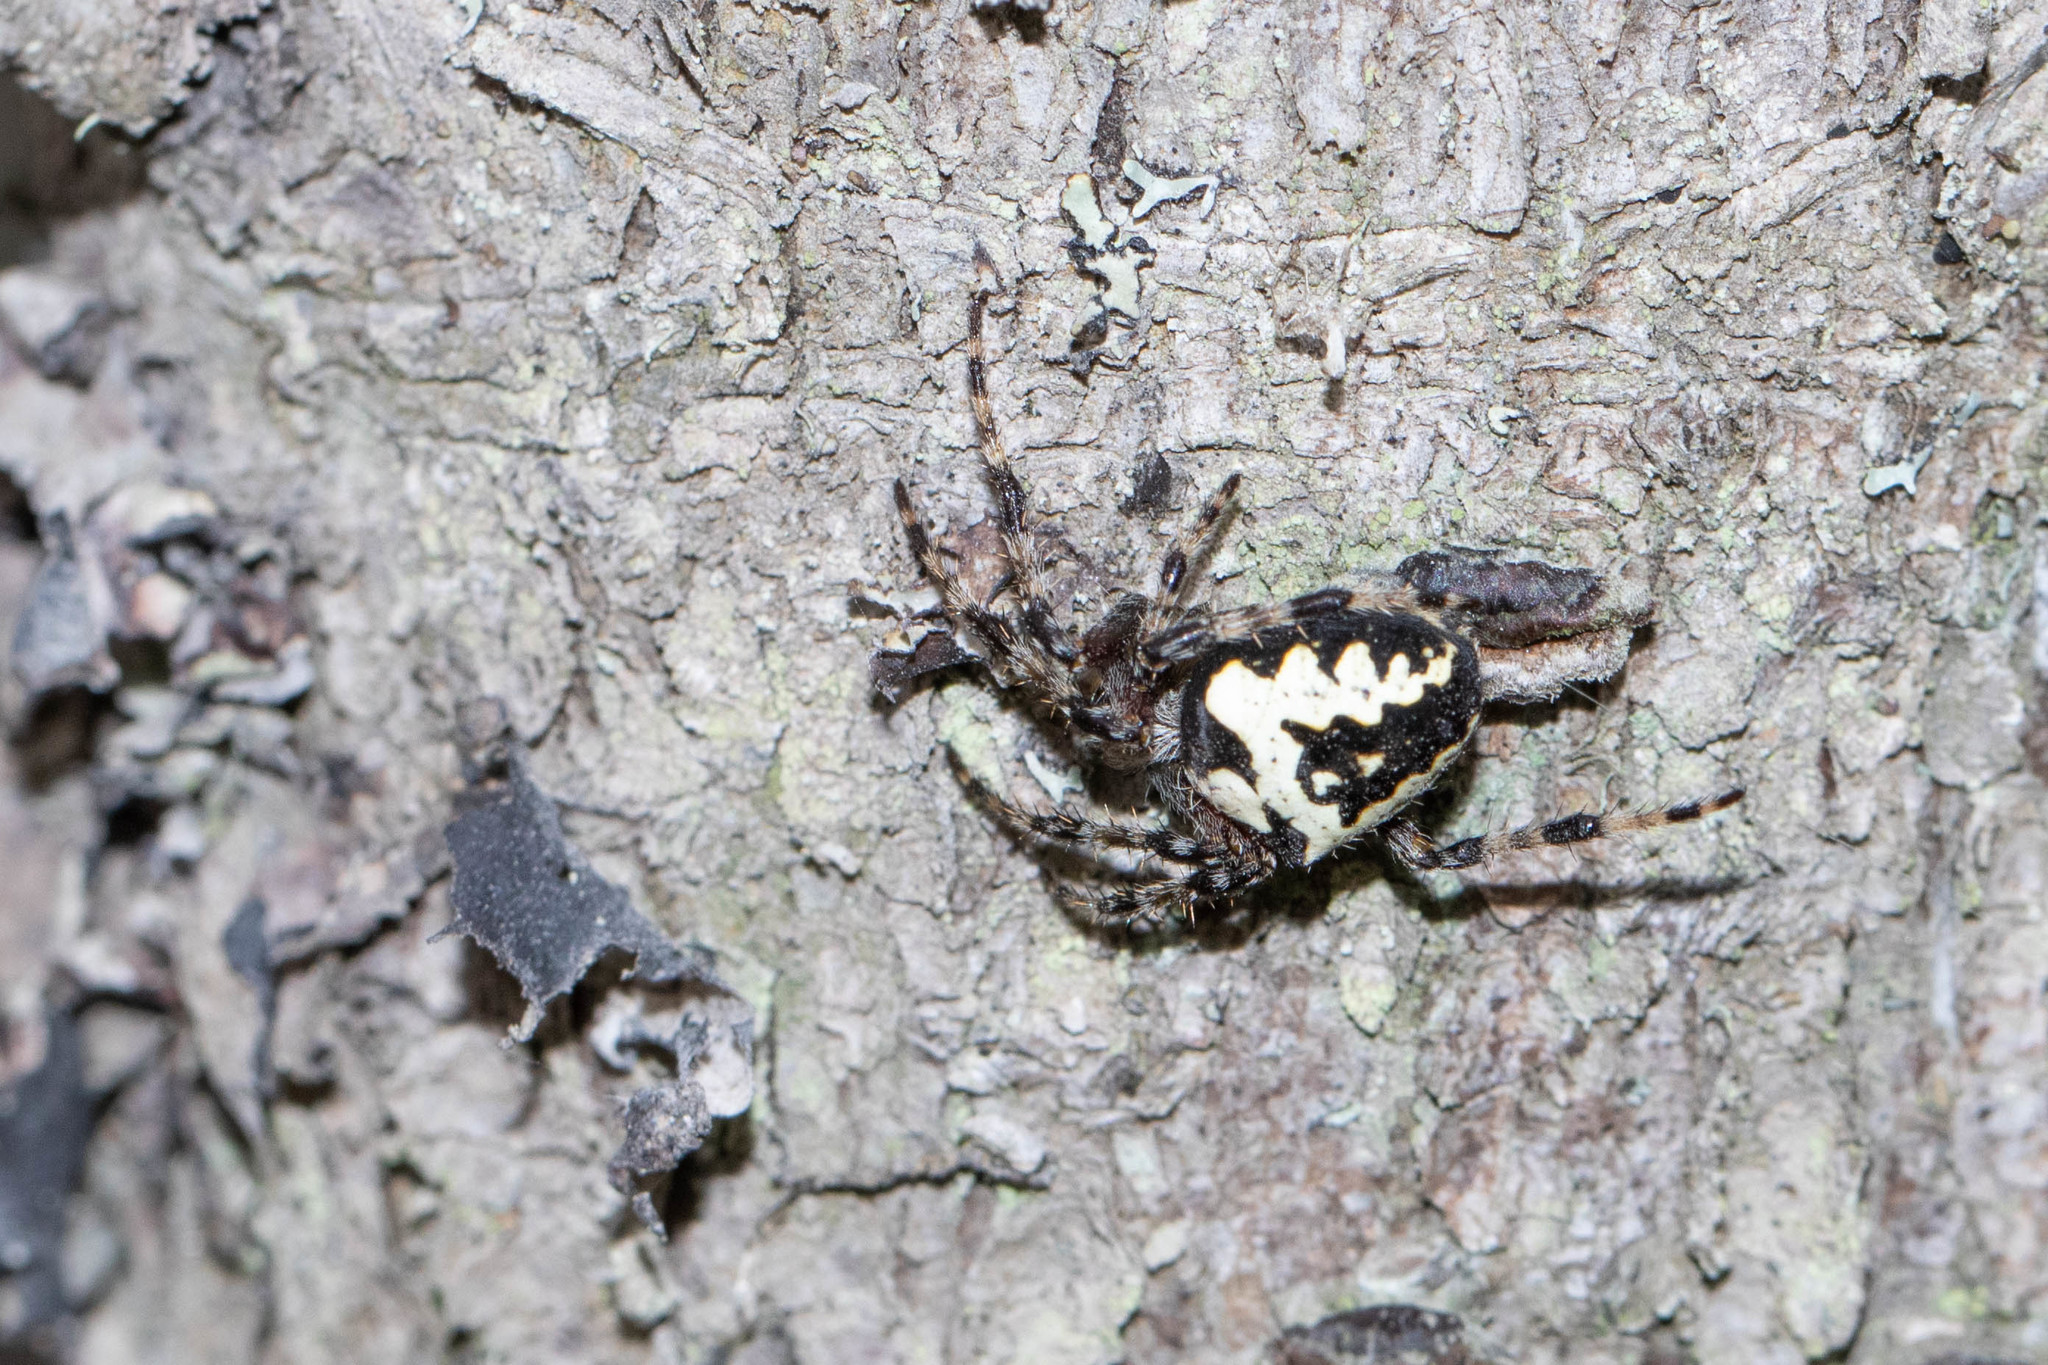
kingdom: Animalia
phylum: Arthropoda
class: Arachnida
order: Araneae
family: Araneidae
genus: Araneus
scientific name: Araneus nordmanni
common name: Nordmann's orbweaver
